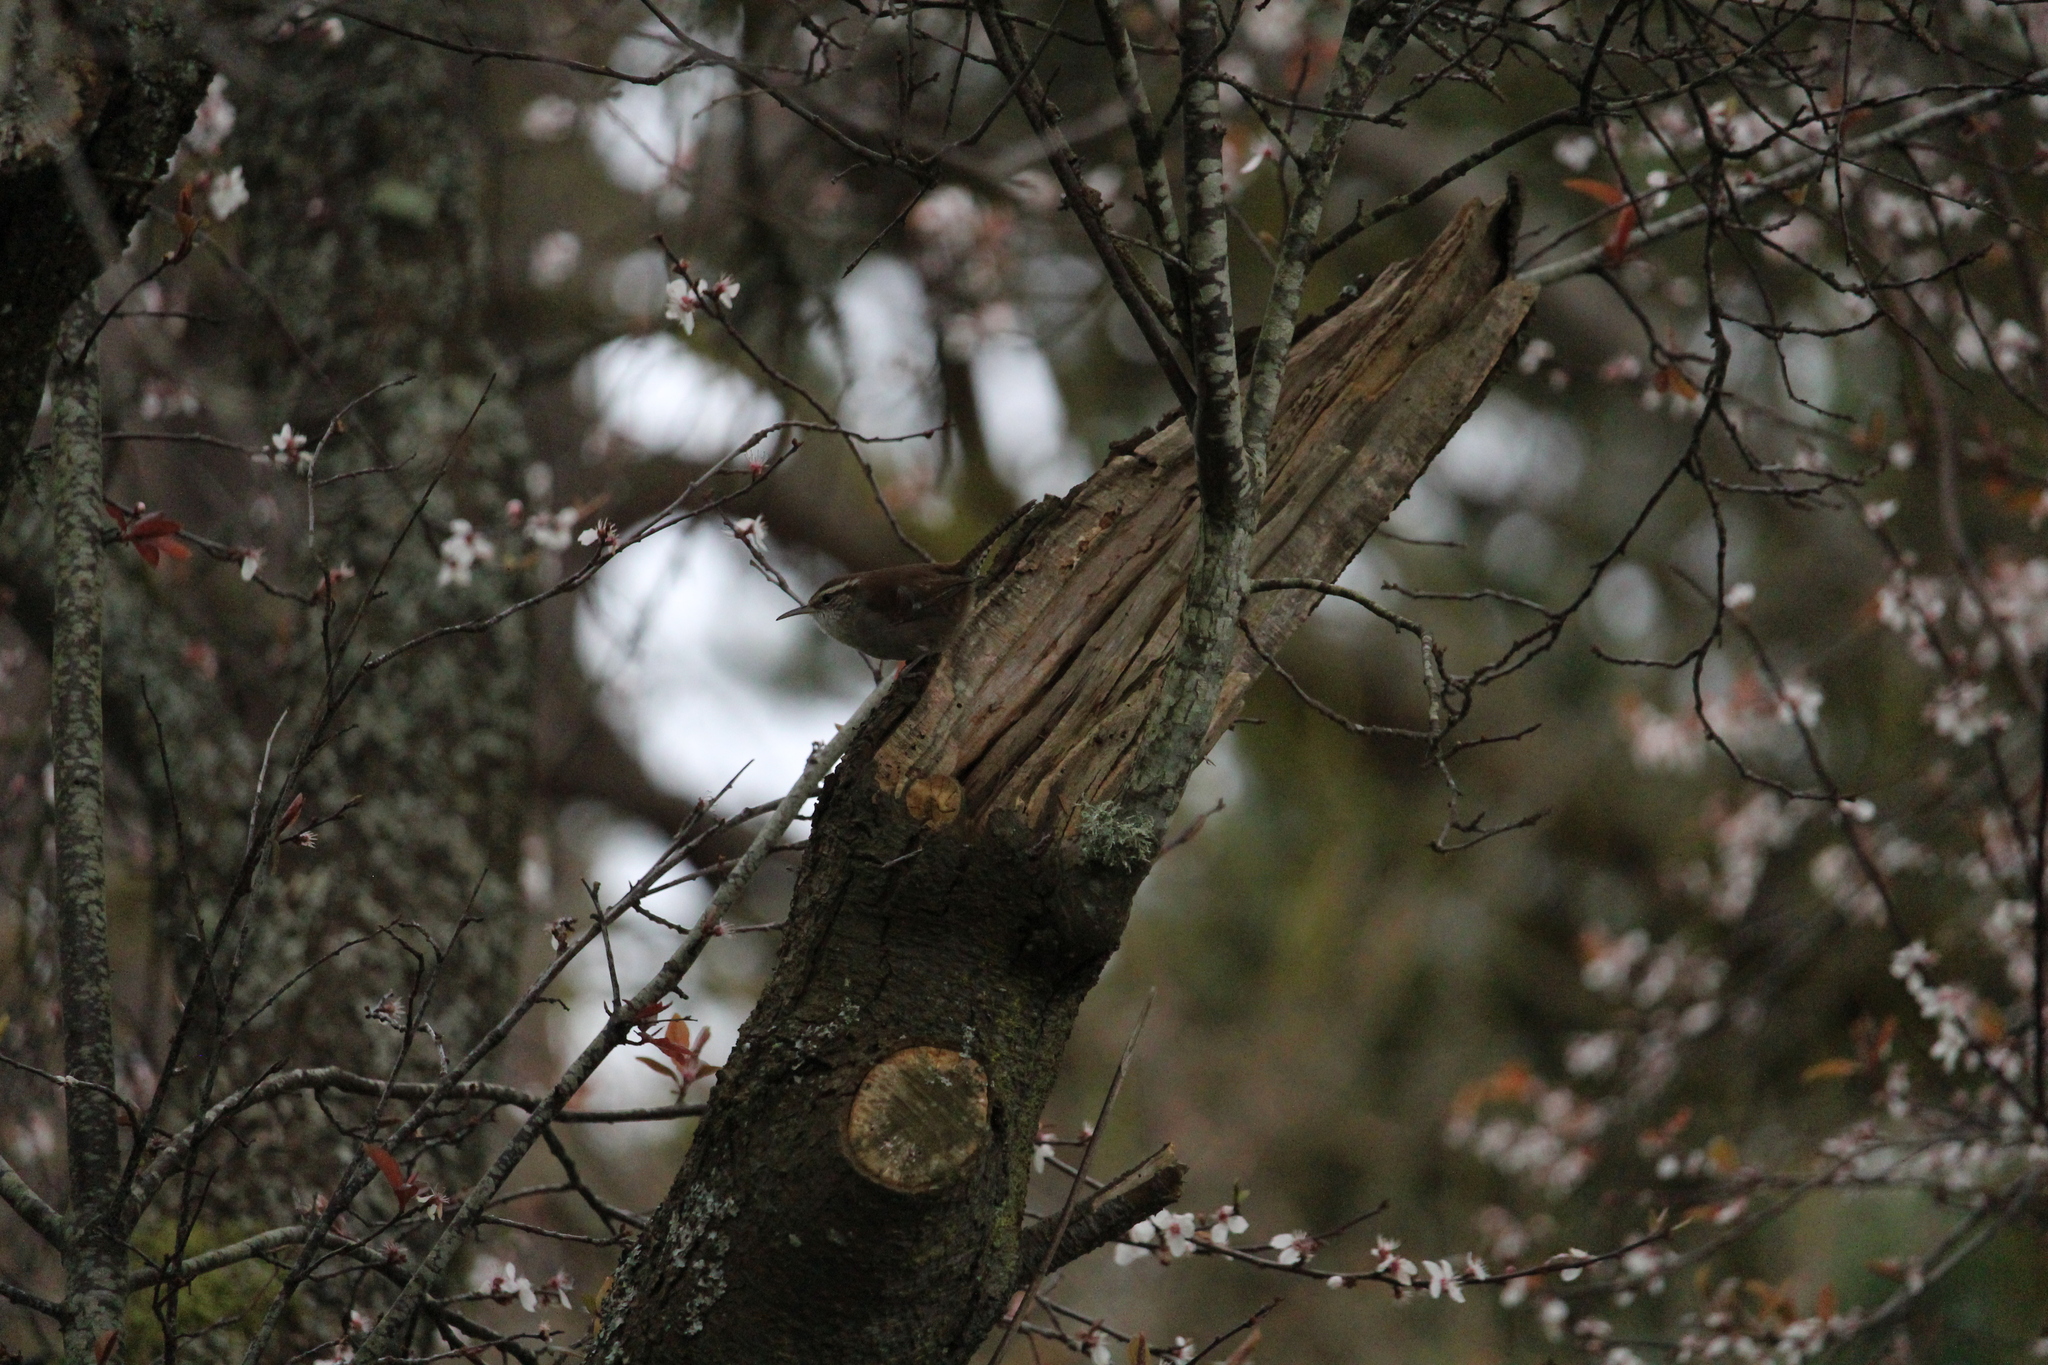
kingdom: Animalia
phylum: Chordata
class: Aves
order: Passeriformes
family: Troglodytidae
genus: Thryomanes
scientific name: Thryomanes bewickii
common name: Bewick's wren
